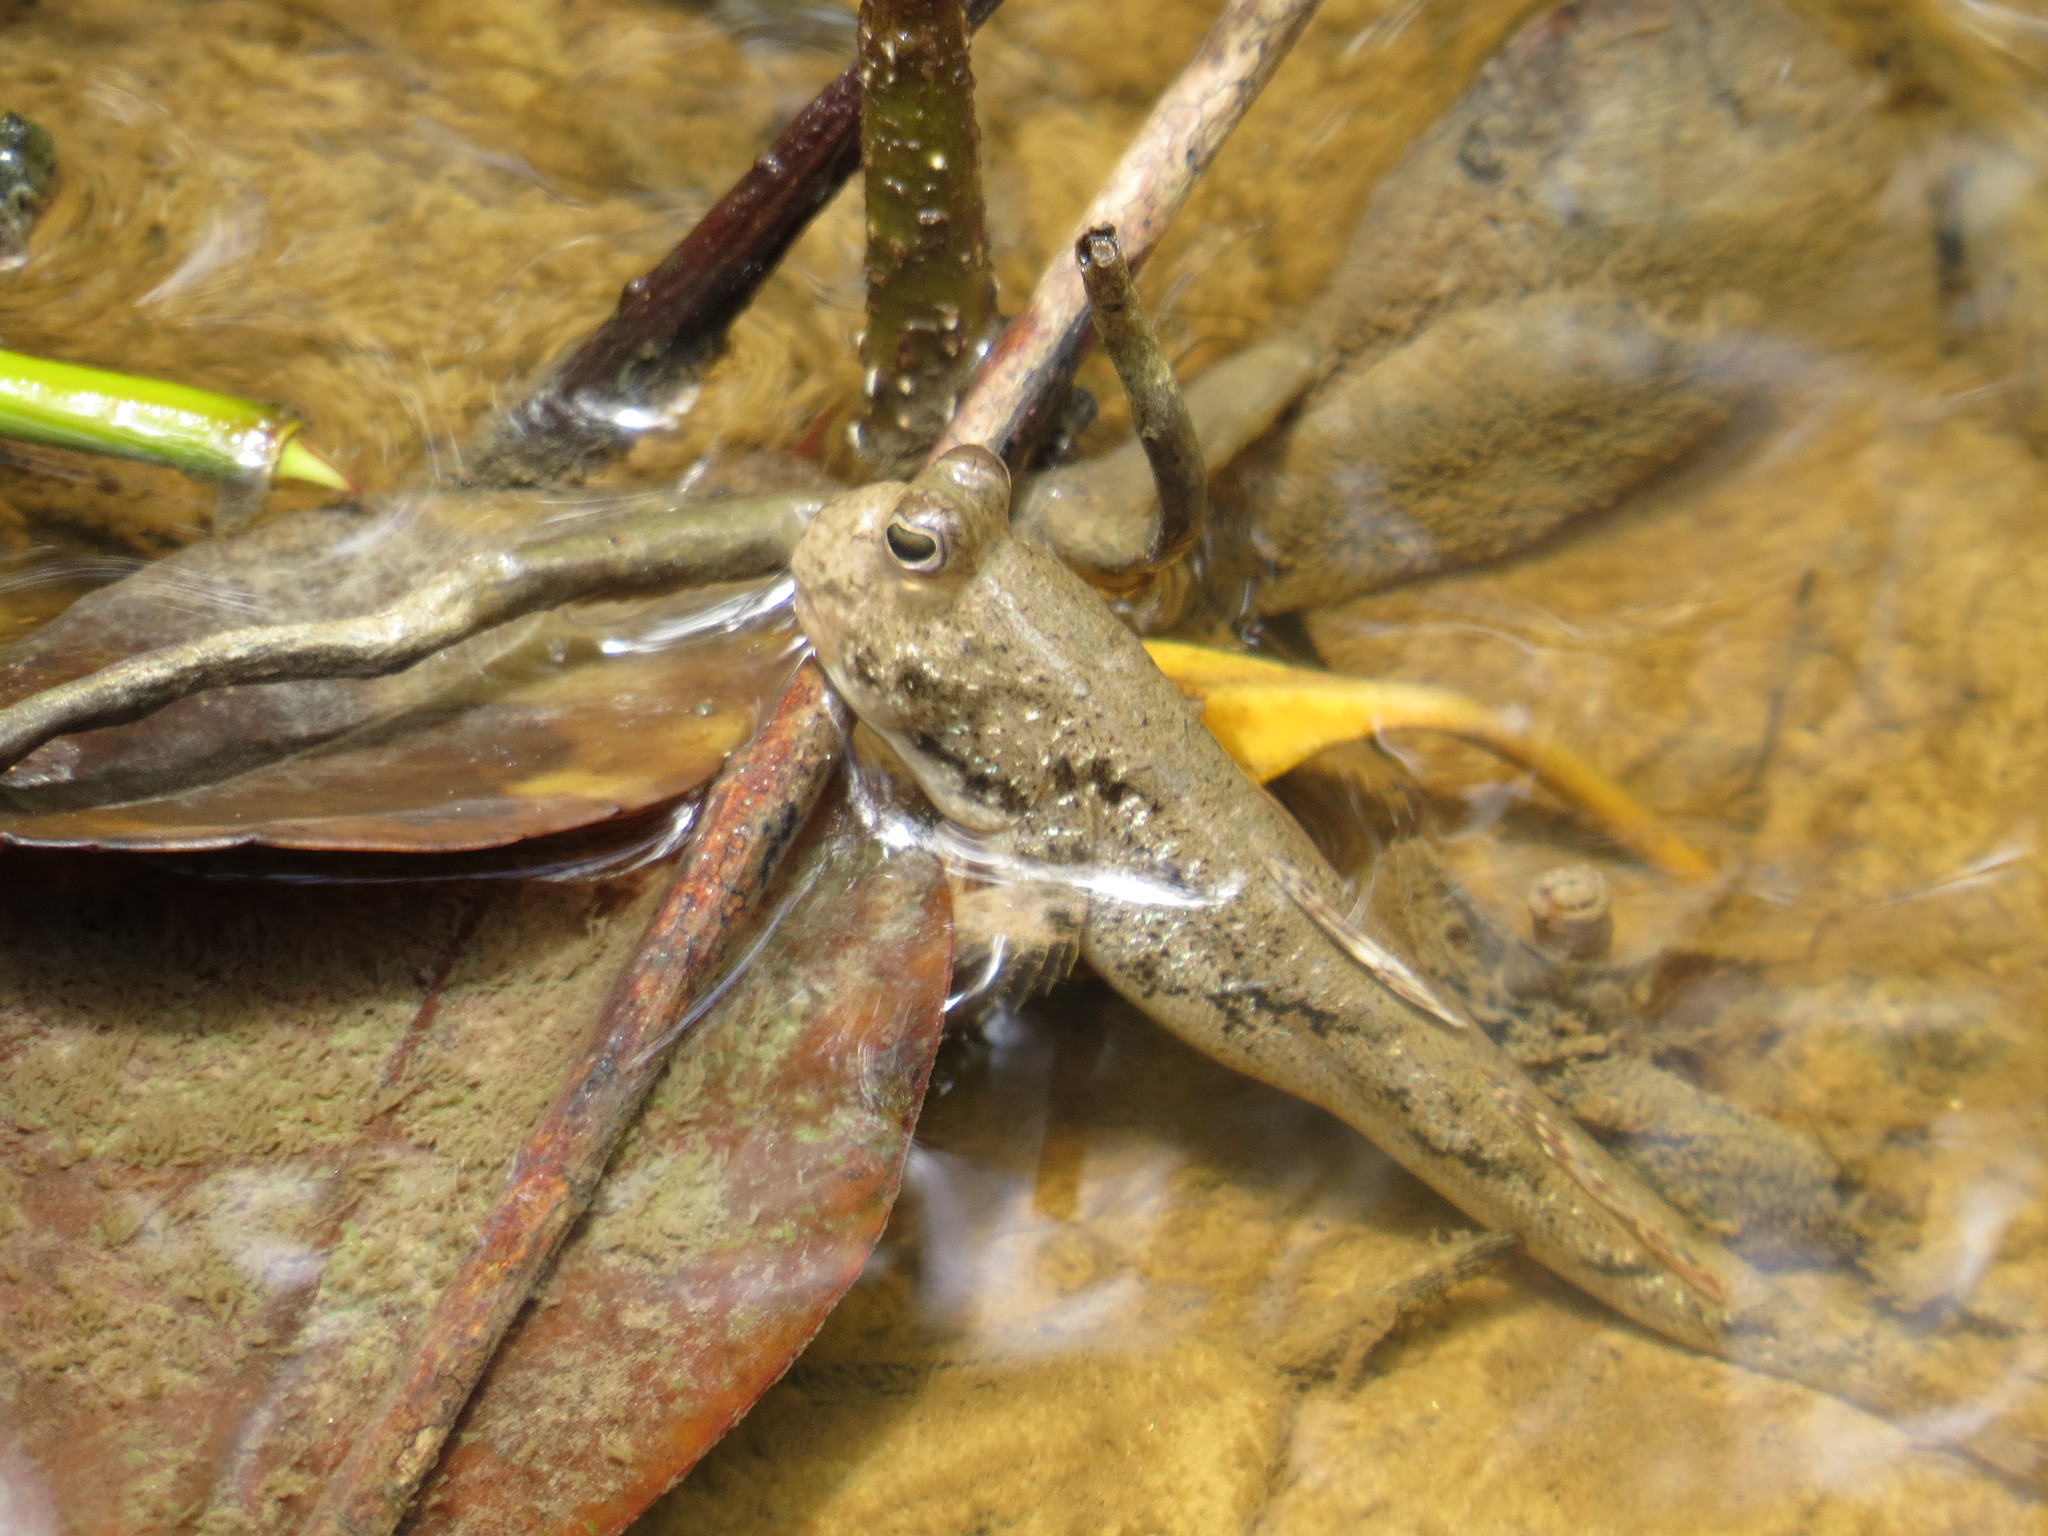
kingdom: Animalia
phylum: Chordata
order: Perciformes
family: Gobiidae
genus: Periophthalmus
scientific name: Periophthalmus argentilineatus
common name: Barred mudskipper
